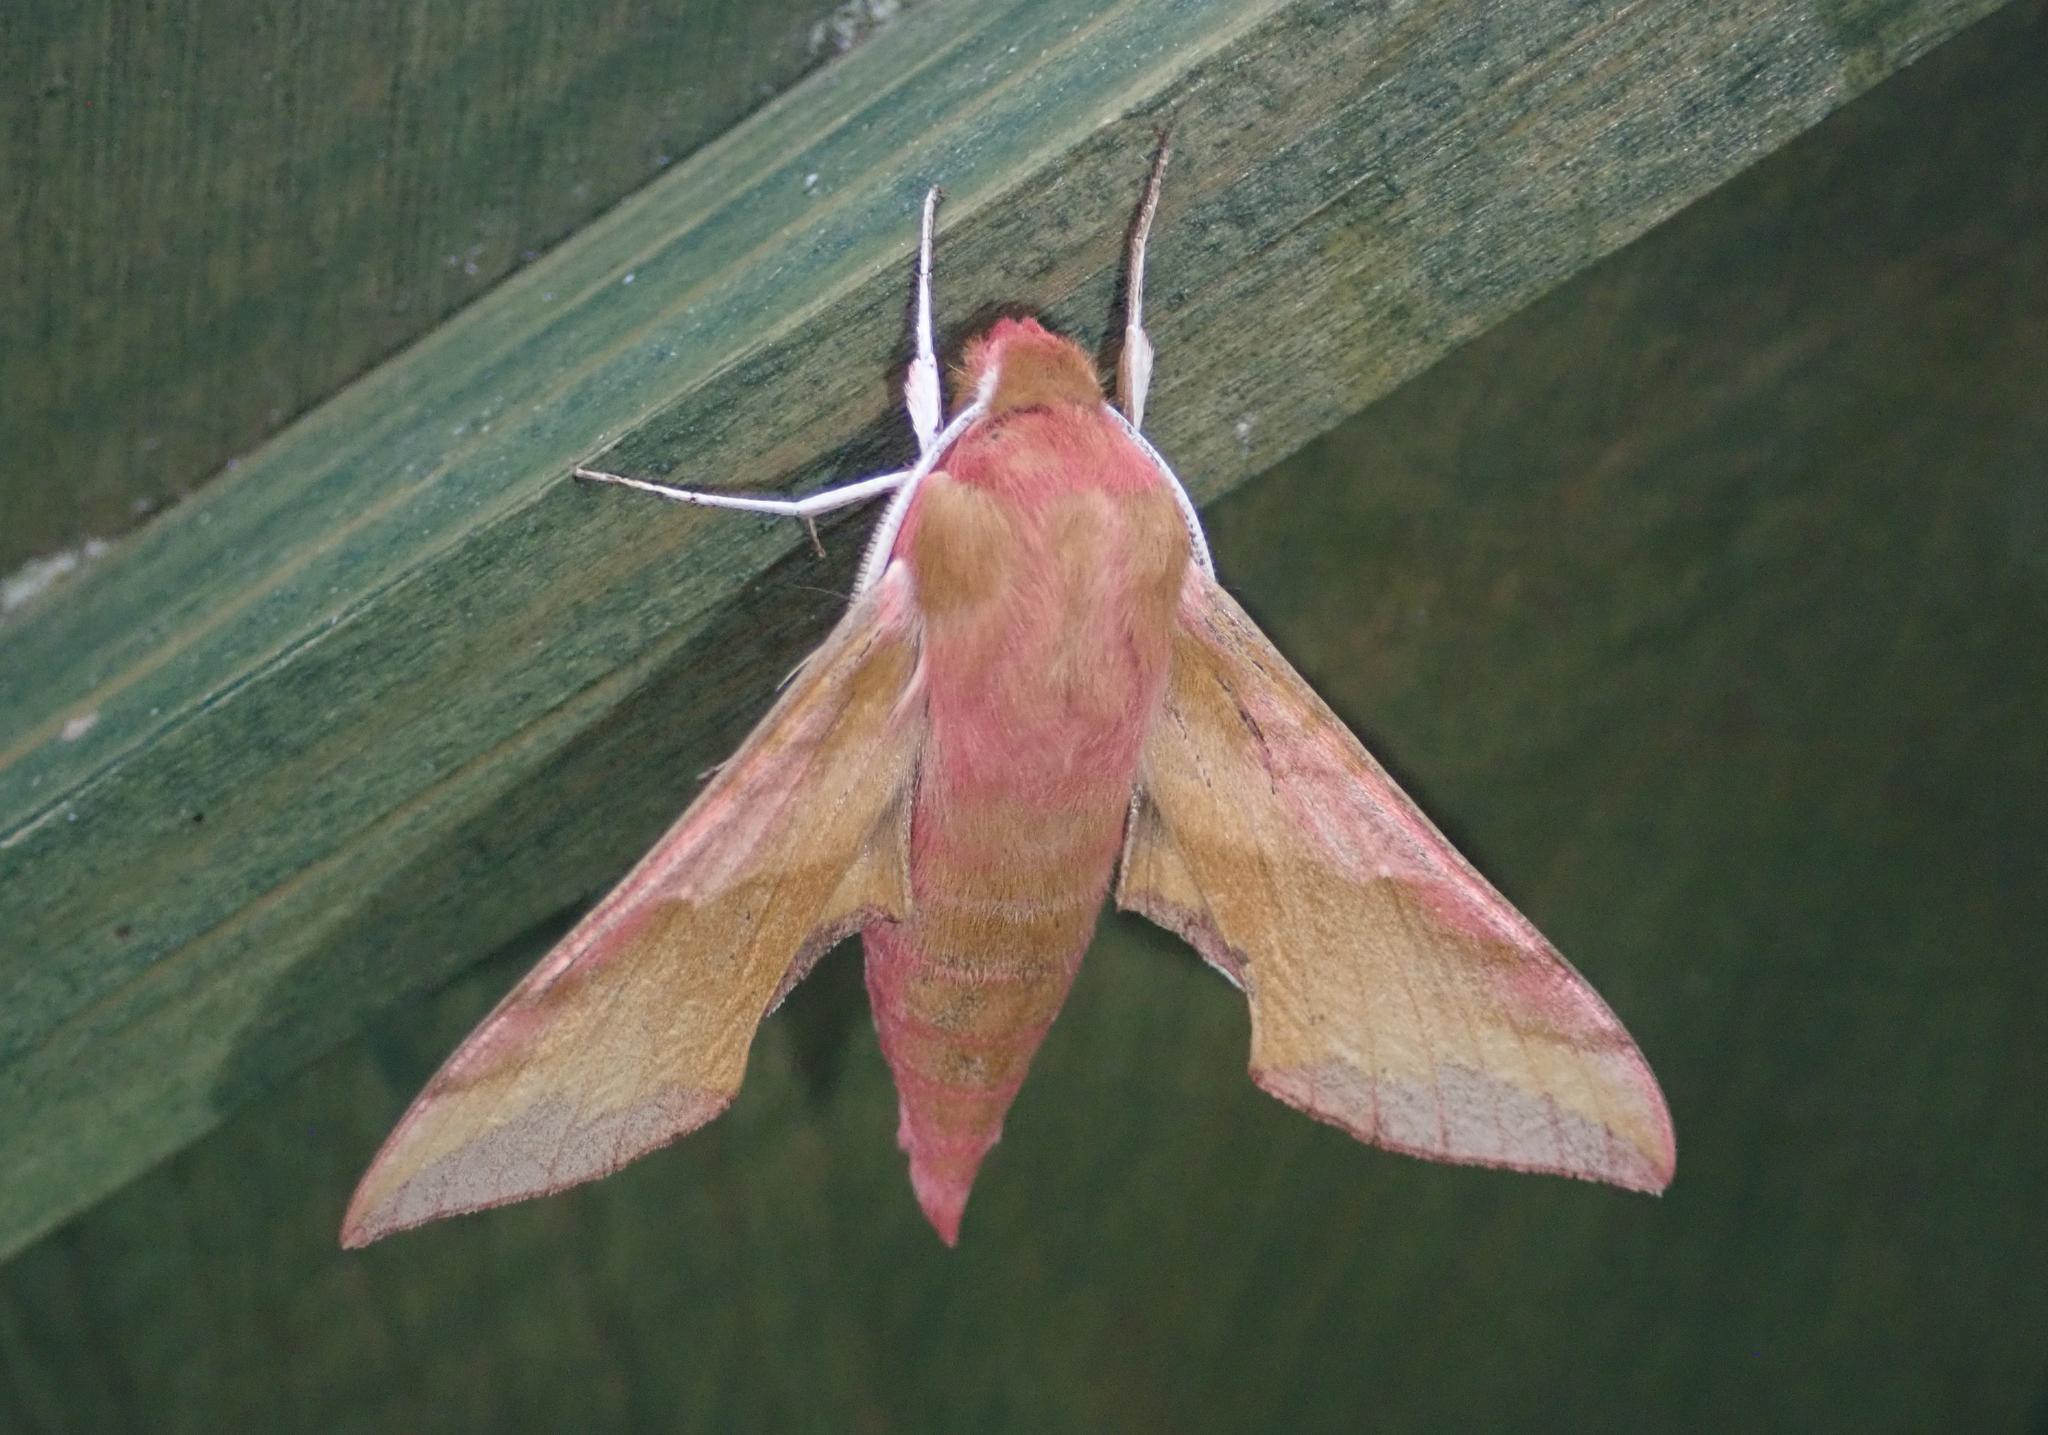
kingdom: Animalia
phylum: Arthropoda
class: Insecta
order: Lepidoptera
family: Sphingidae
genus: Deilephila
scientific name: Deilephila porcellus
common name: Small elephant hawk-moth
